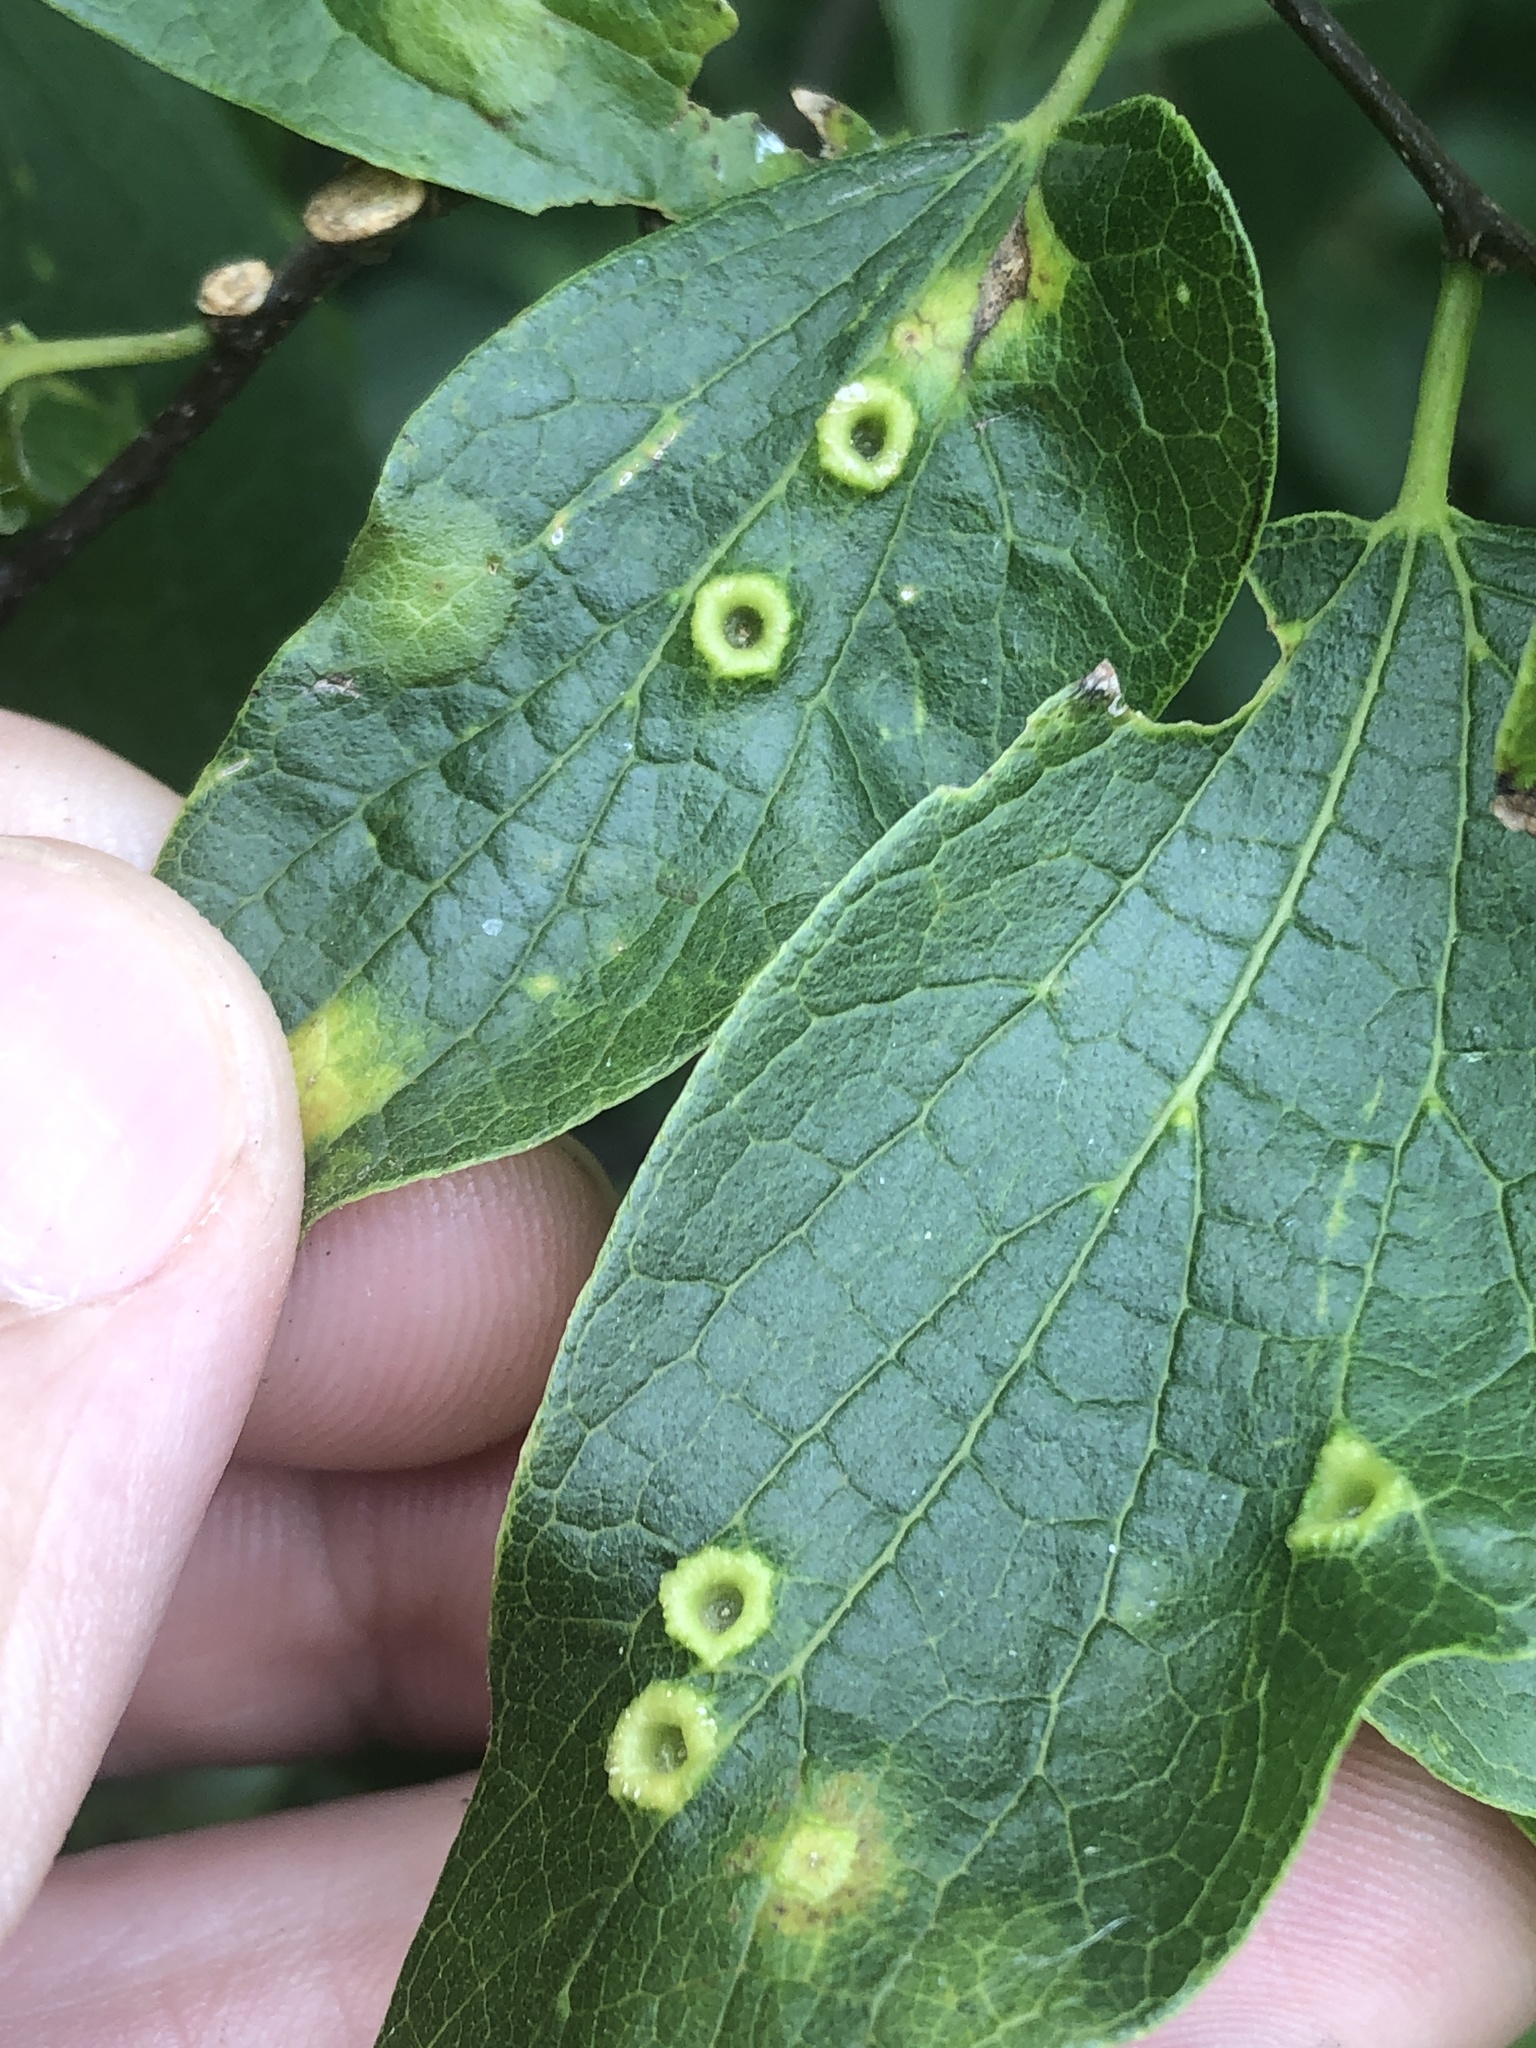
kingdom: Animalia
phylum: Arthropoda
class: Insecta
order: Hemiptera
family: Aphalaridae
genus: Pachypsylla
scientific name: Pachypsylla celtidismamma
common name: Hackberry nipplegall psyllid
